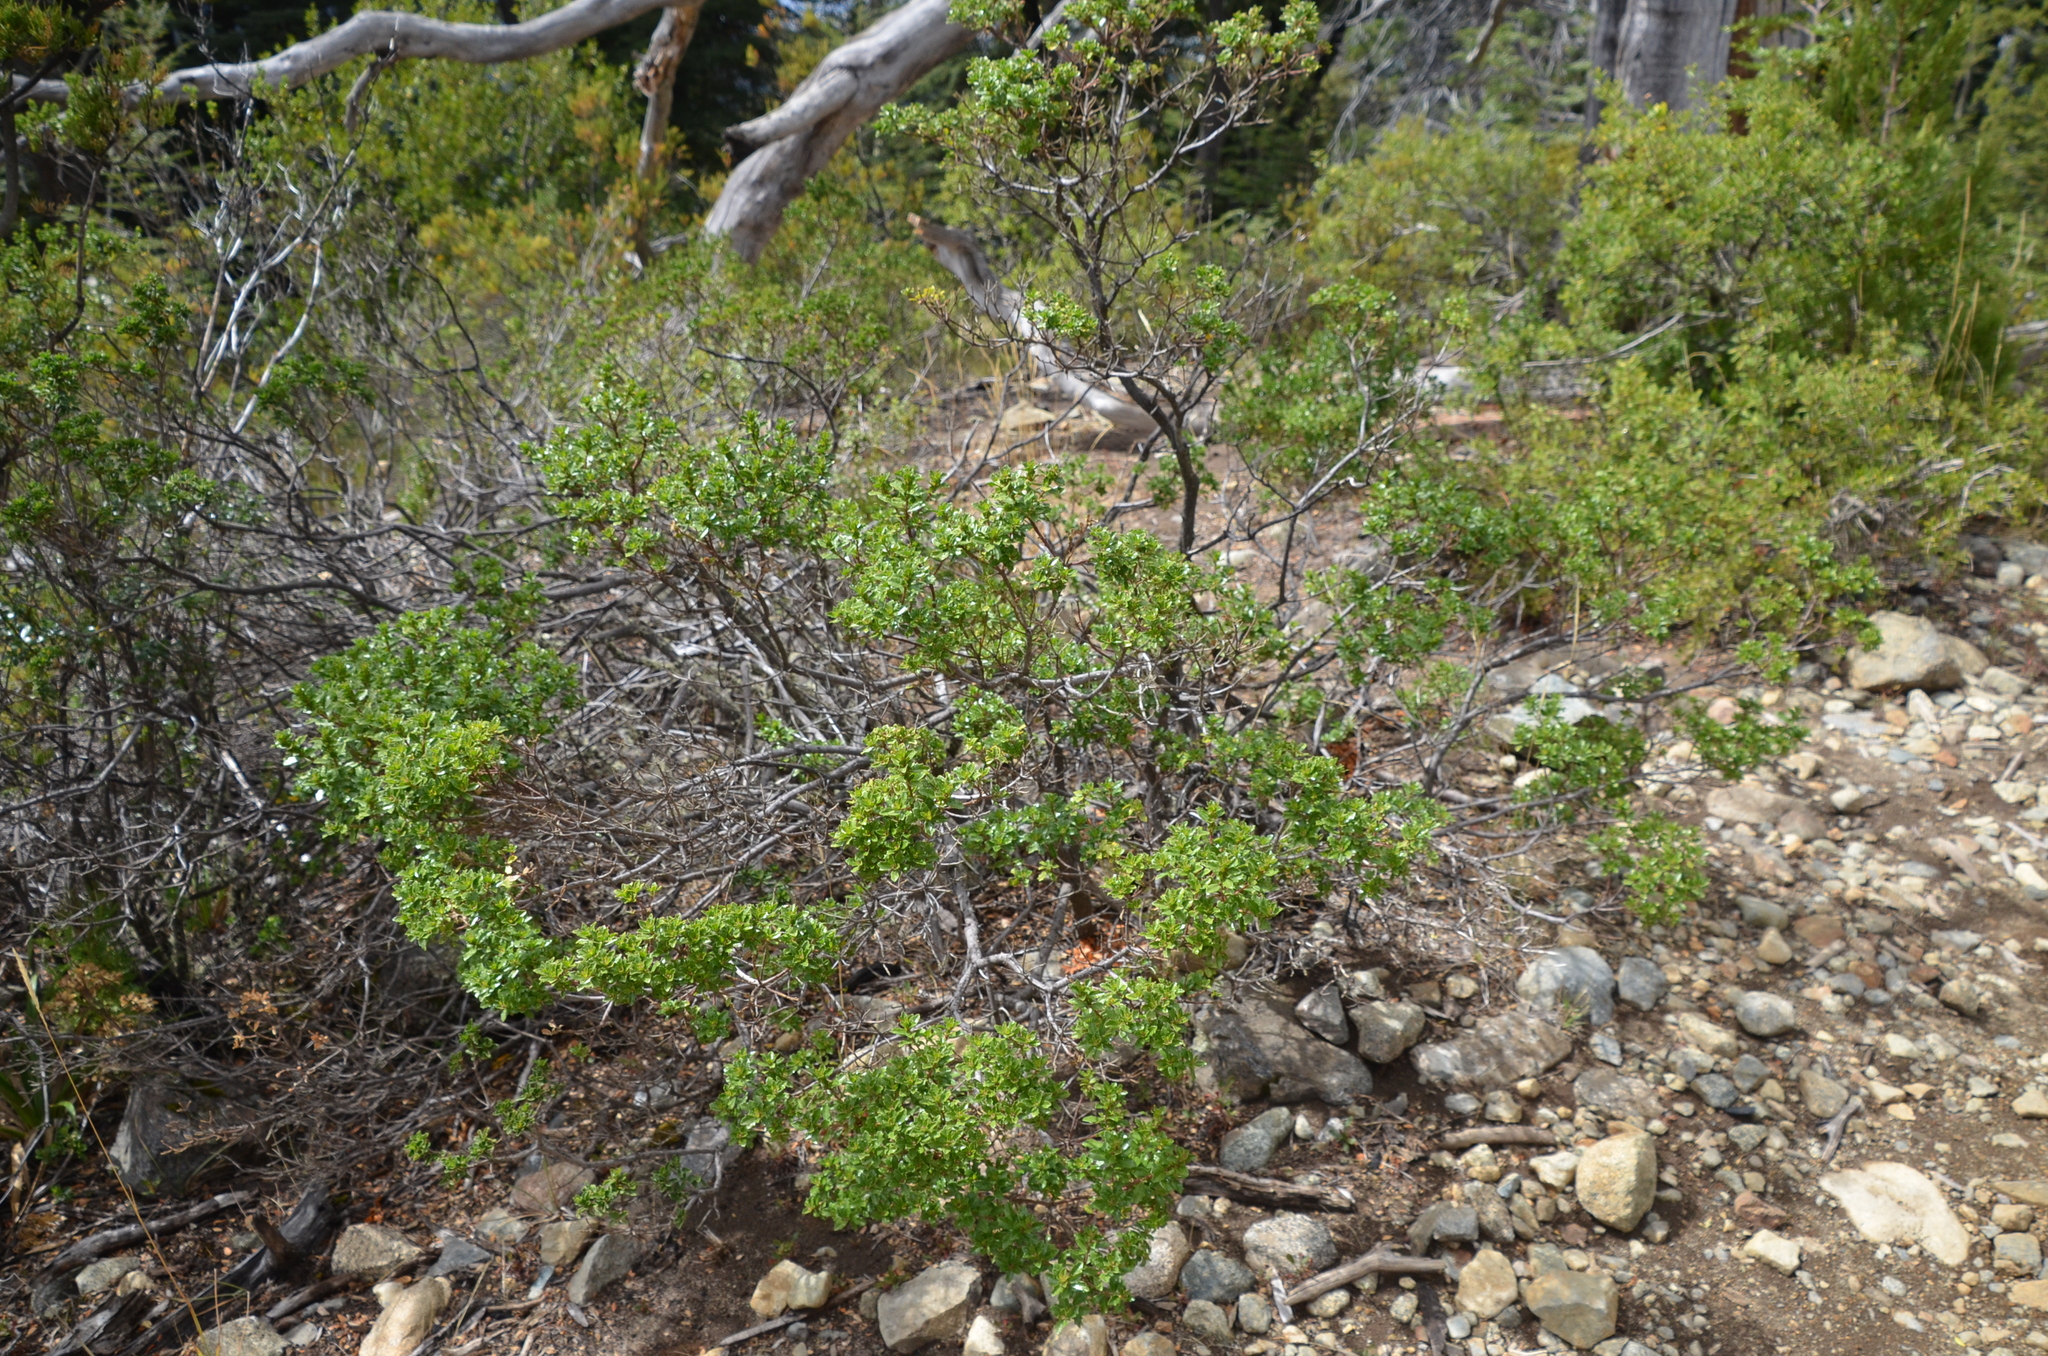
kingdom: Plantae
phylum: Tracheophyta
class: Magnoliopsida
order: Asterales
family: Asteraceae
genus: Baccharis
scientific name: Baccharis obovata
